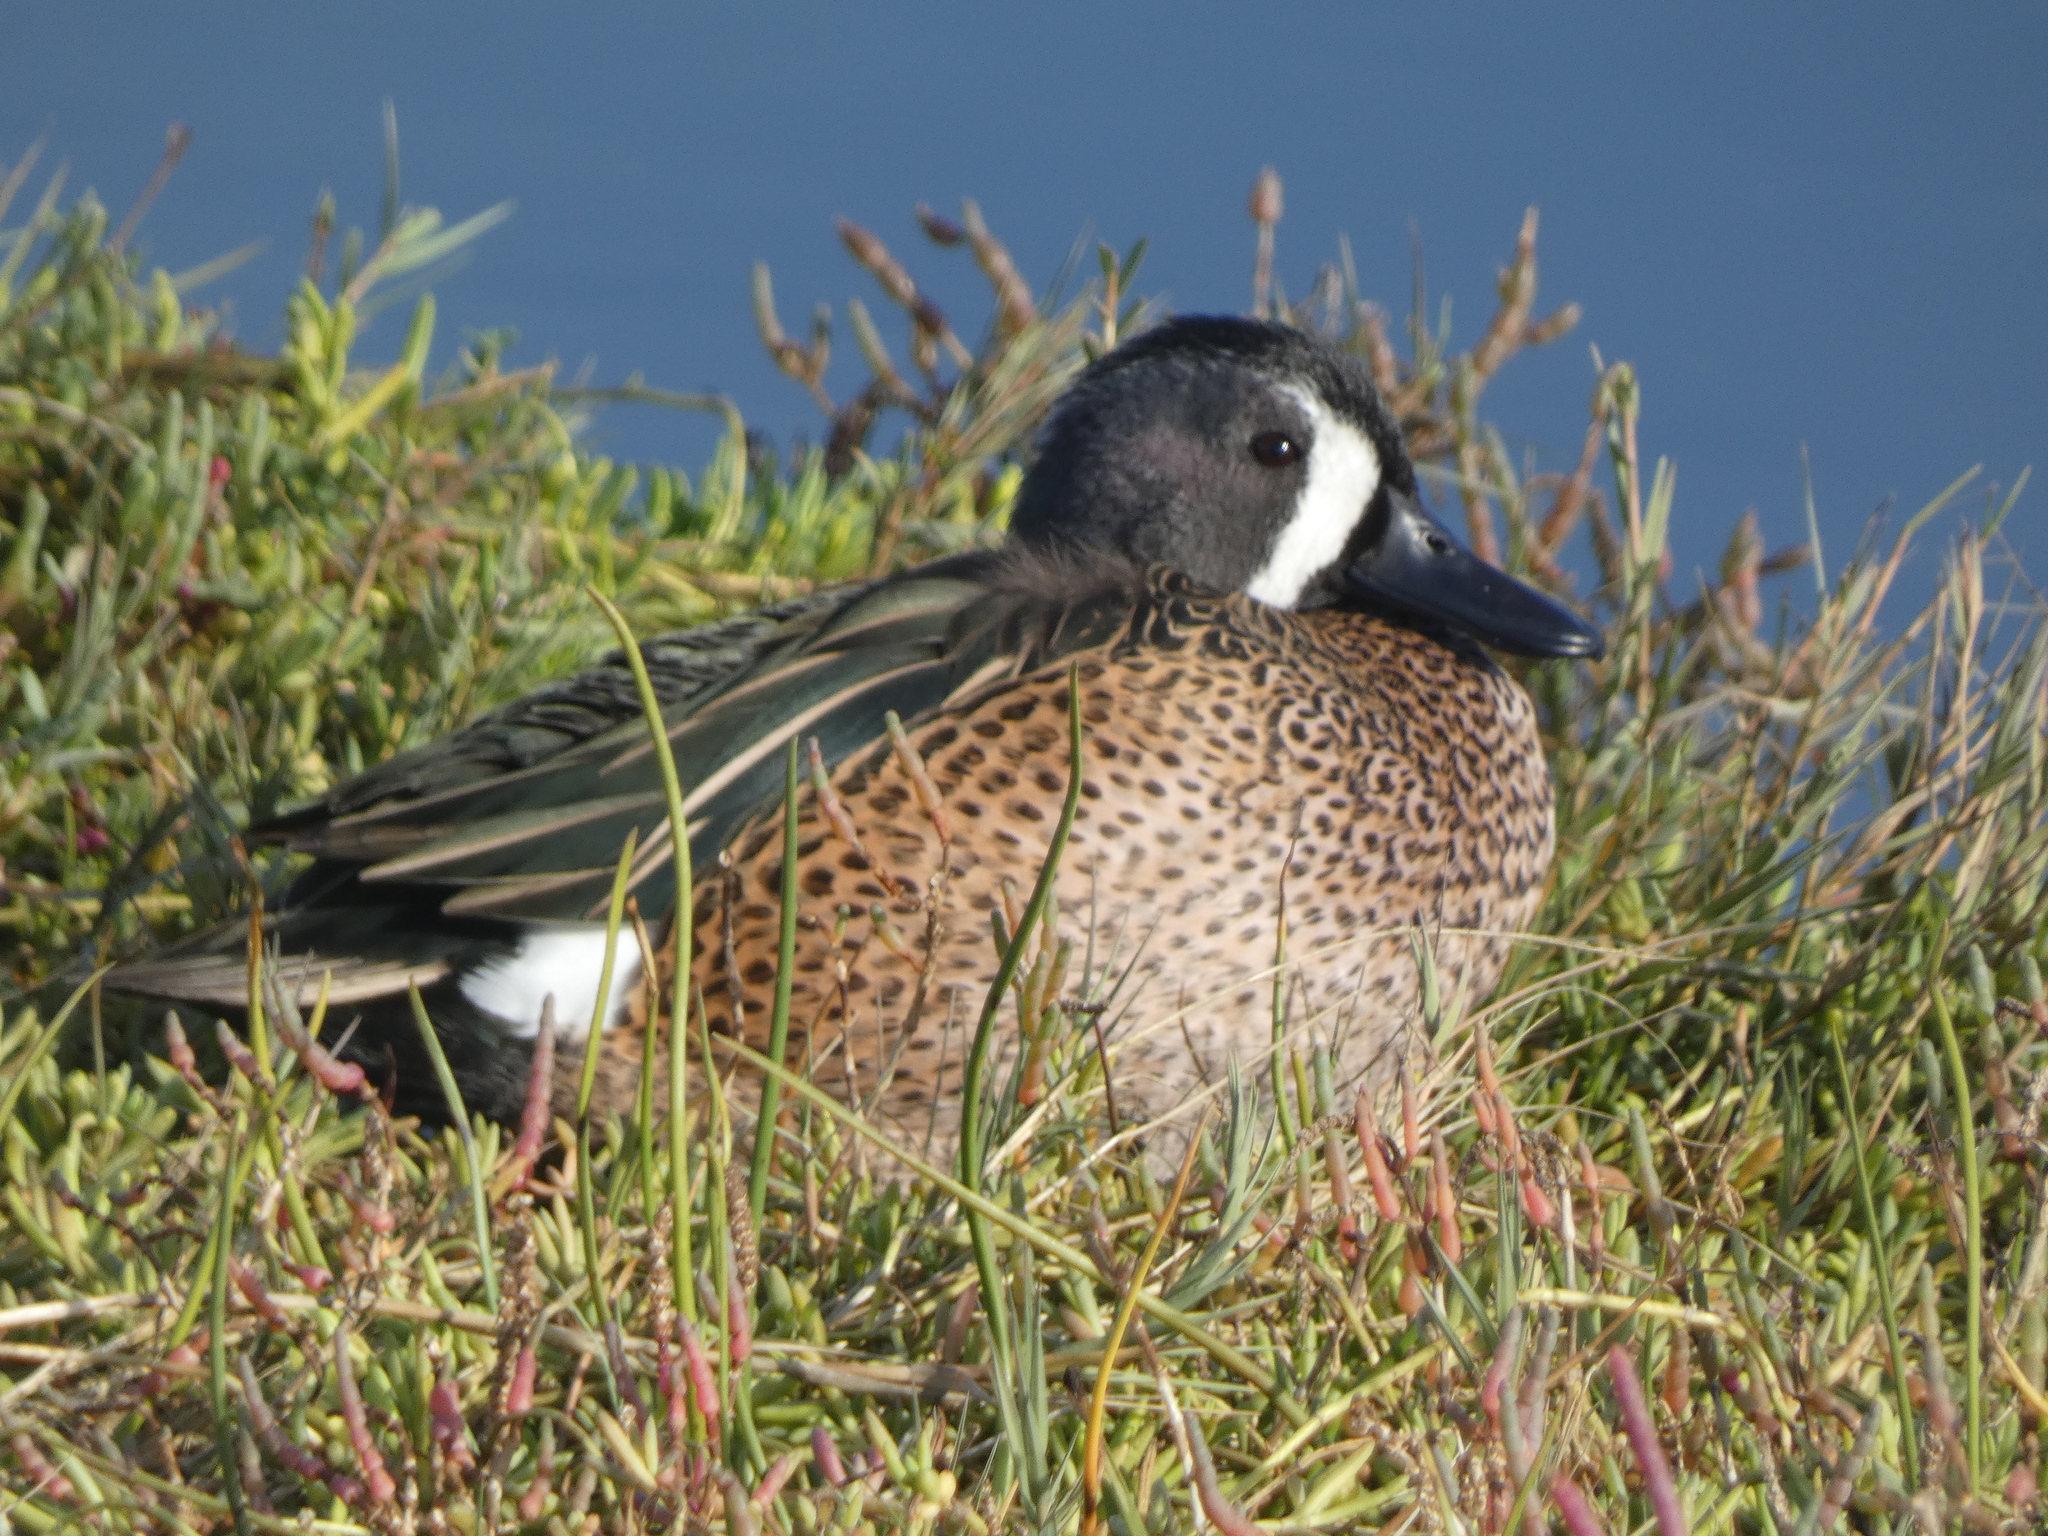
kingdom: Animalia
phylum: Chordata
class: Aves
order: Anseriformes
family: Anatidae
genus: Spatula
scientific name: Spatula discors
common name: Blue-winged teal
